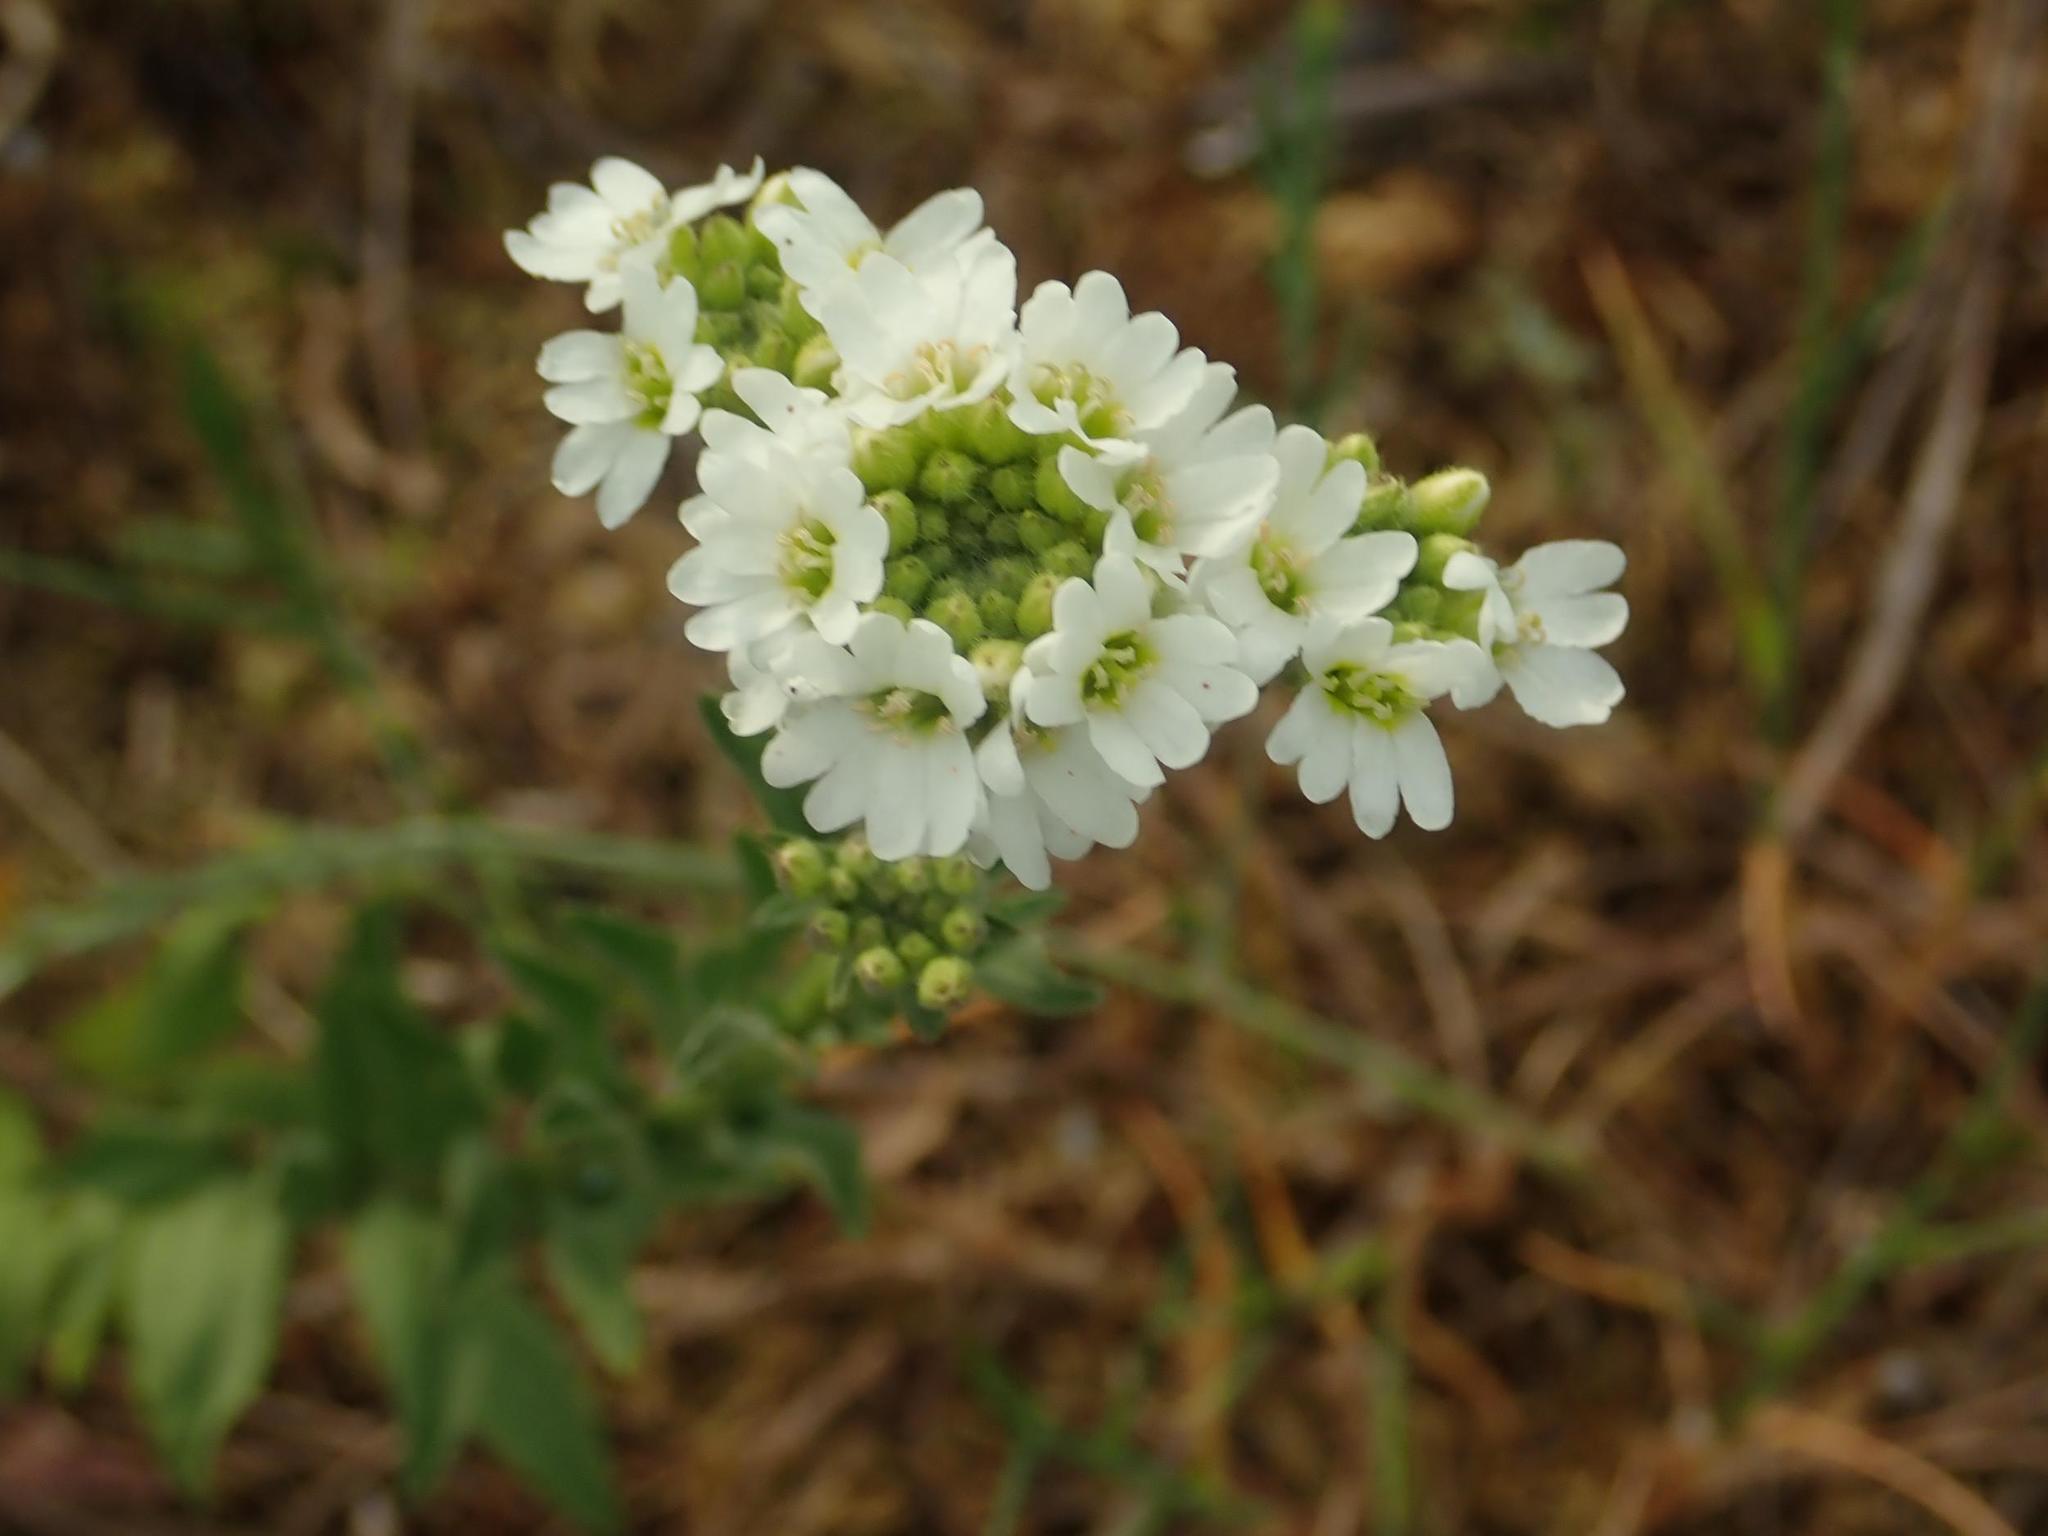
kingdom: Plantae
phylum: Tracheophyta
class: Magnoliopsida
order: Brassicales
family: Brassicaceae
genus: Berteroa
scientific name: Berteroa incana
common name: Hoary alison
